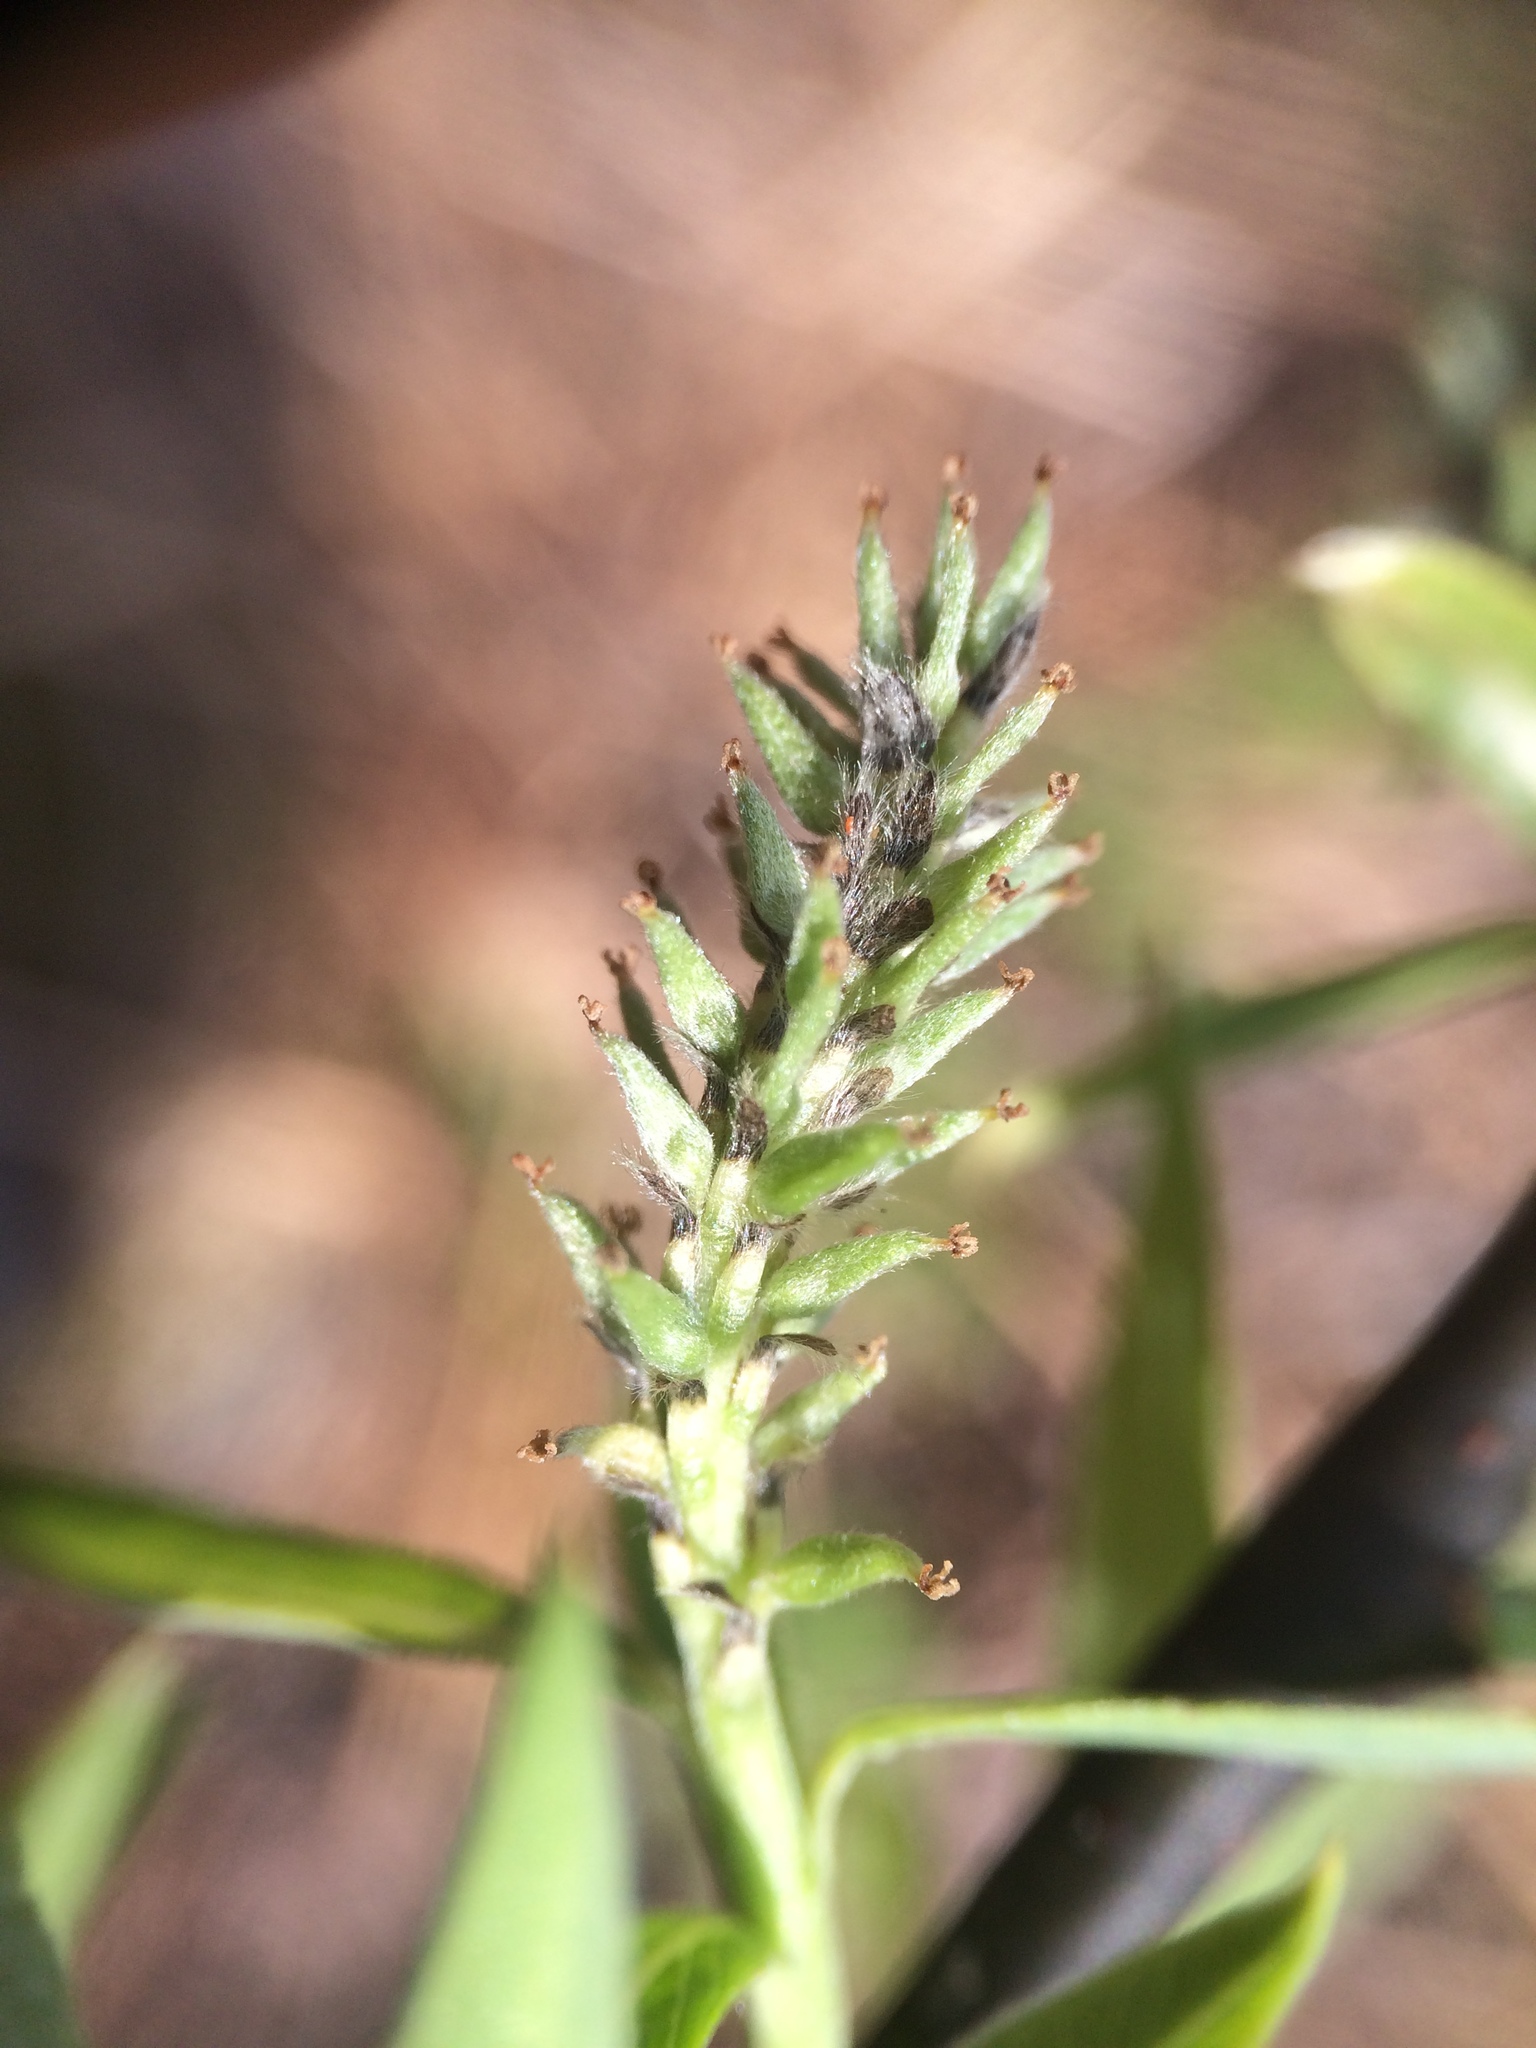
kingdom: Plantae
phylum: Tracheophyta
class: Magnoliopsida
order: Malpighiales
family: Salicaceae
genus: Salix
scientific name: Salix petiolaris
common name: Slender willow
